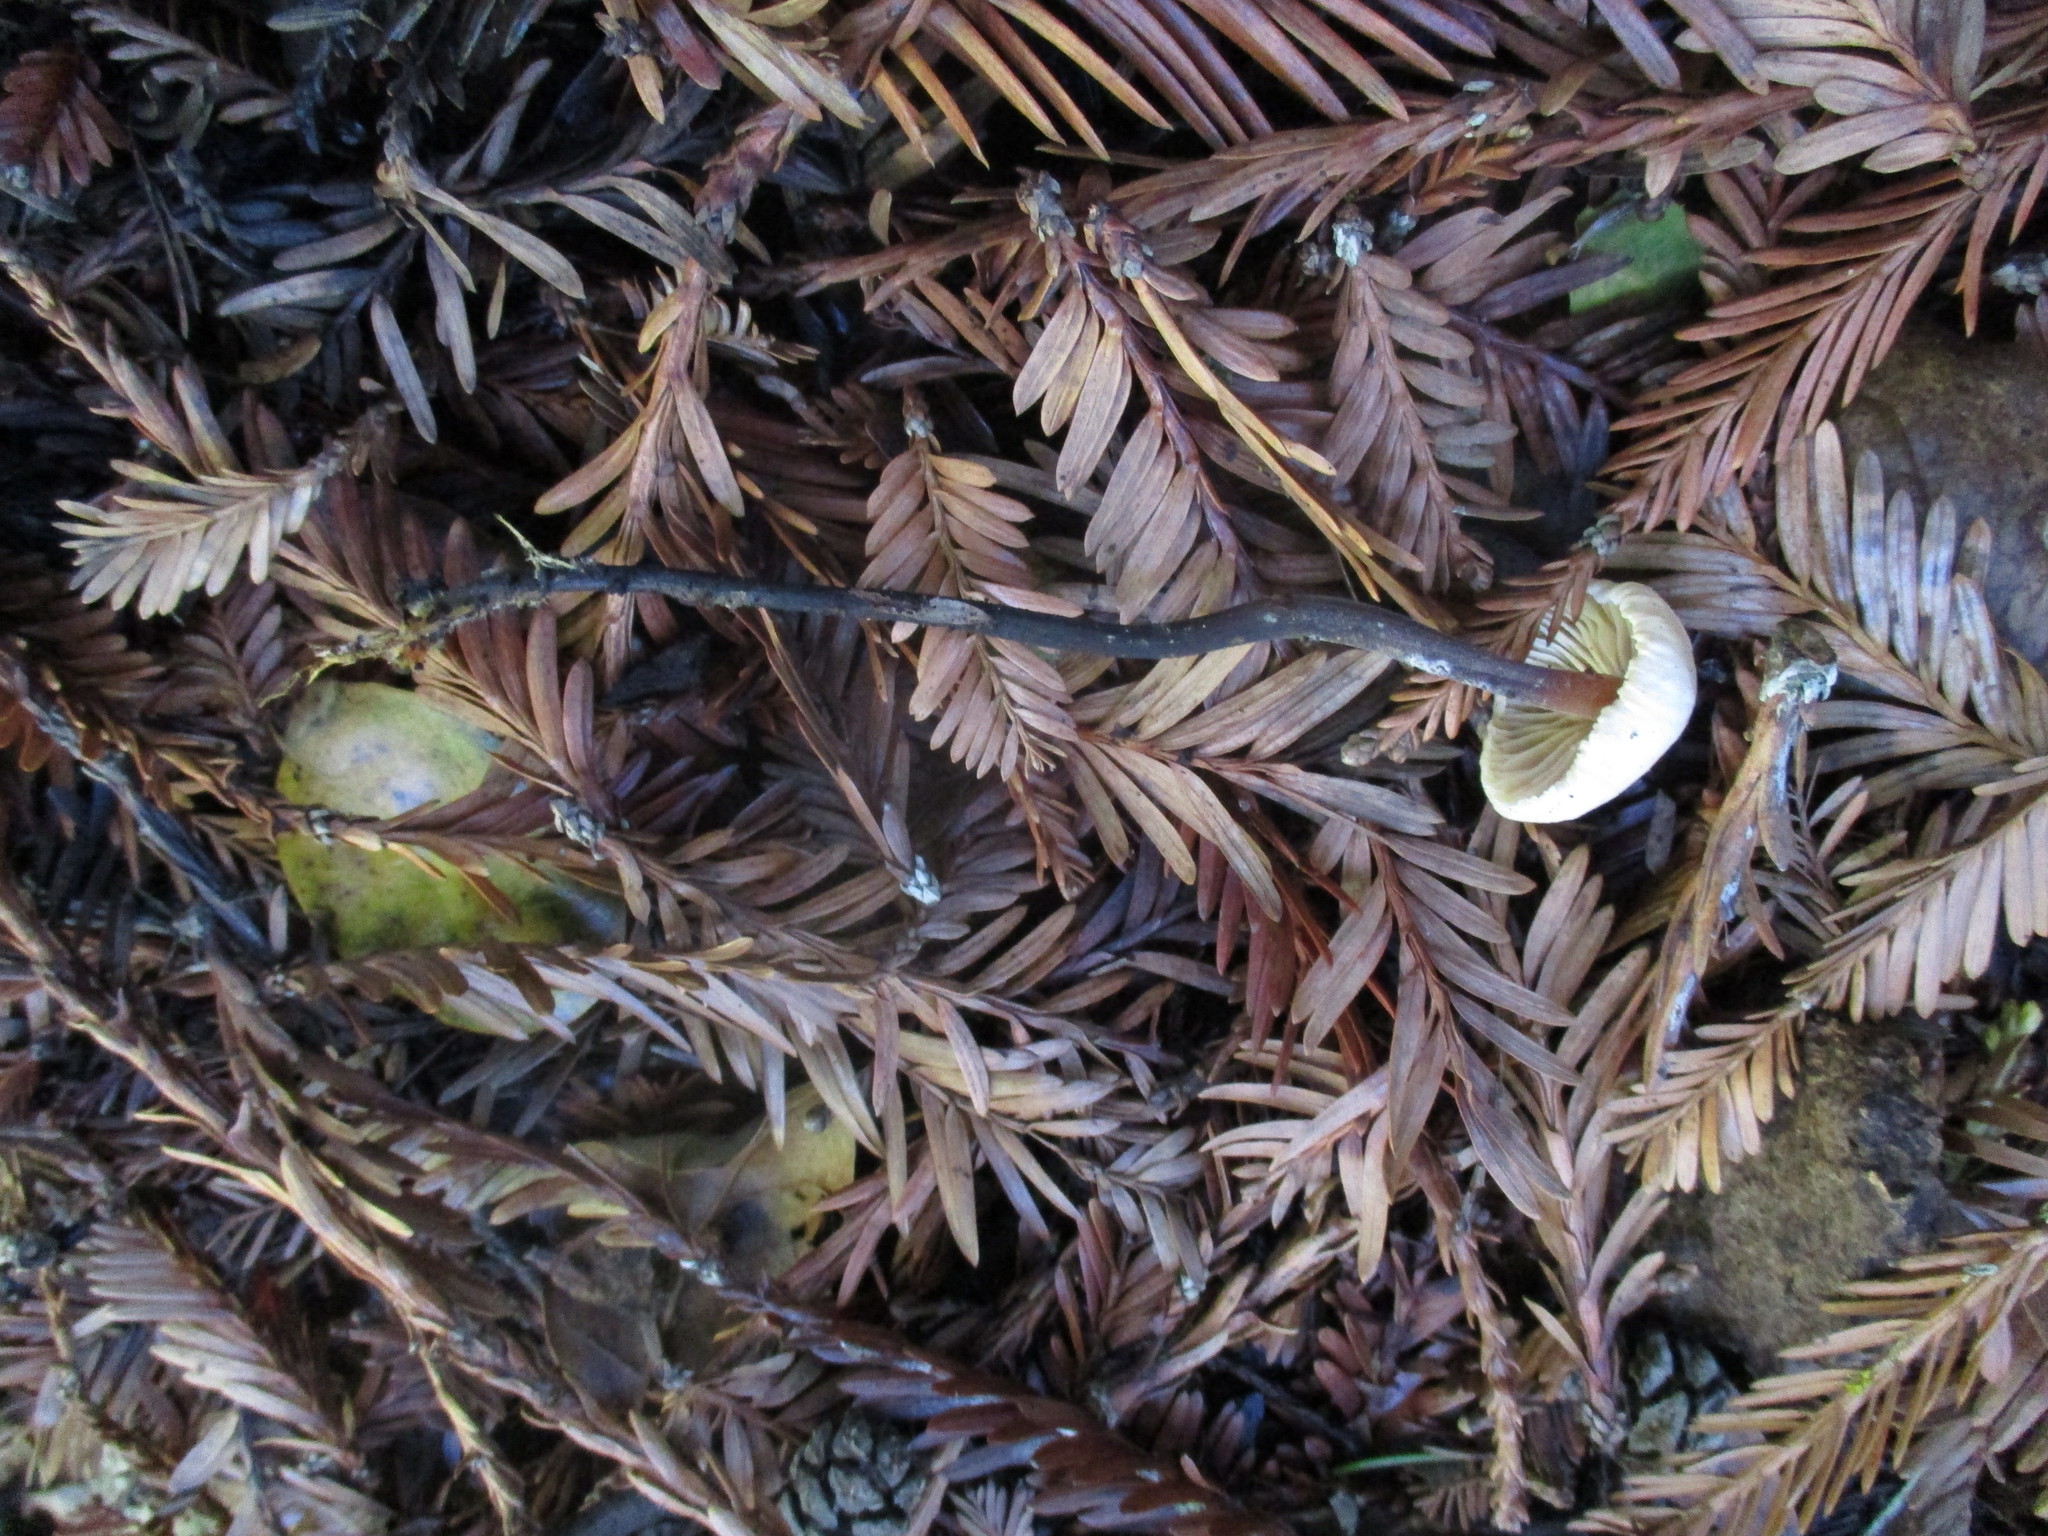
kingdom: Fungi
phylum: Basidiomycota
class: Agaricomycetes
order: Agaricales
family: Omphalotaceae
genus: Gymnopus
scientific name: Gymnopus brassicolens
